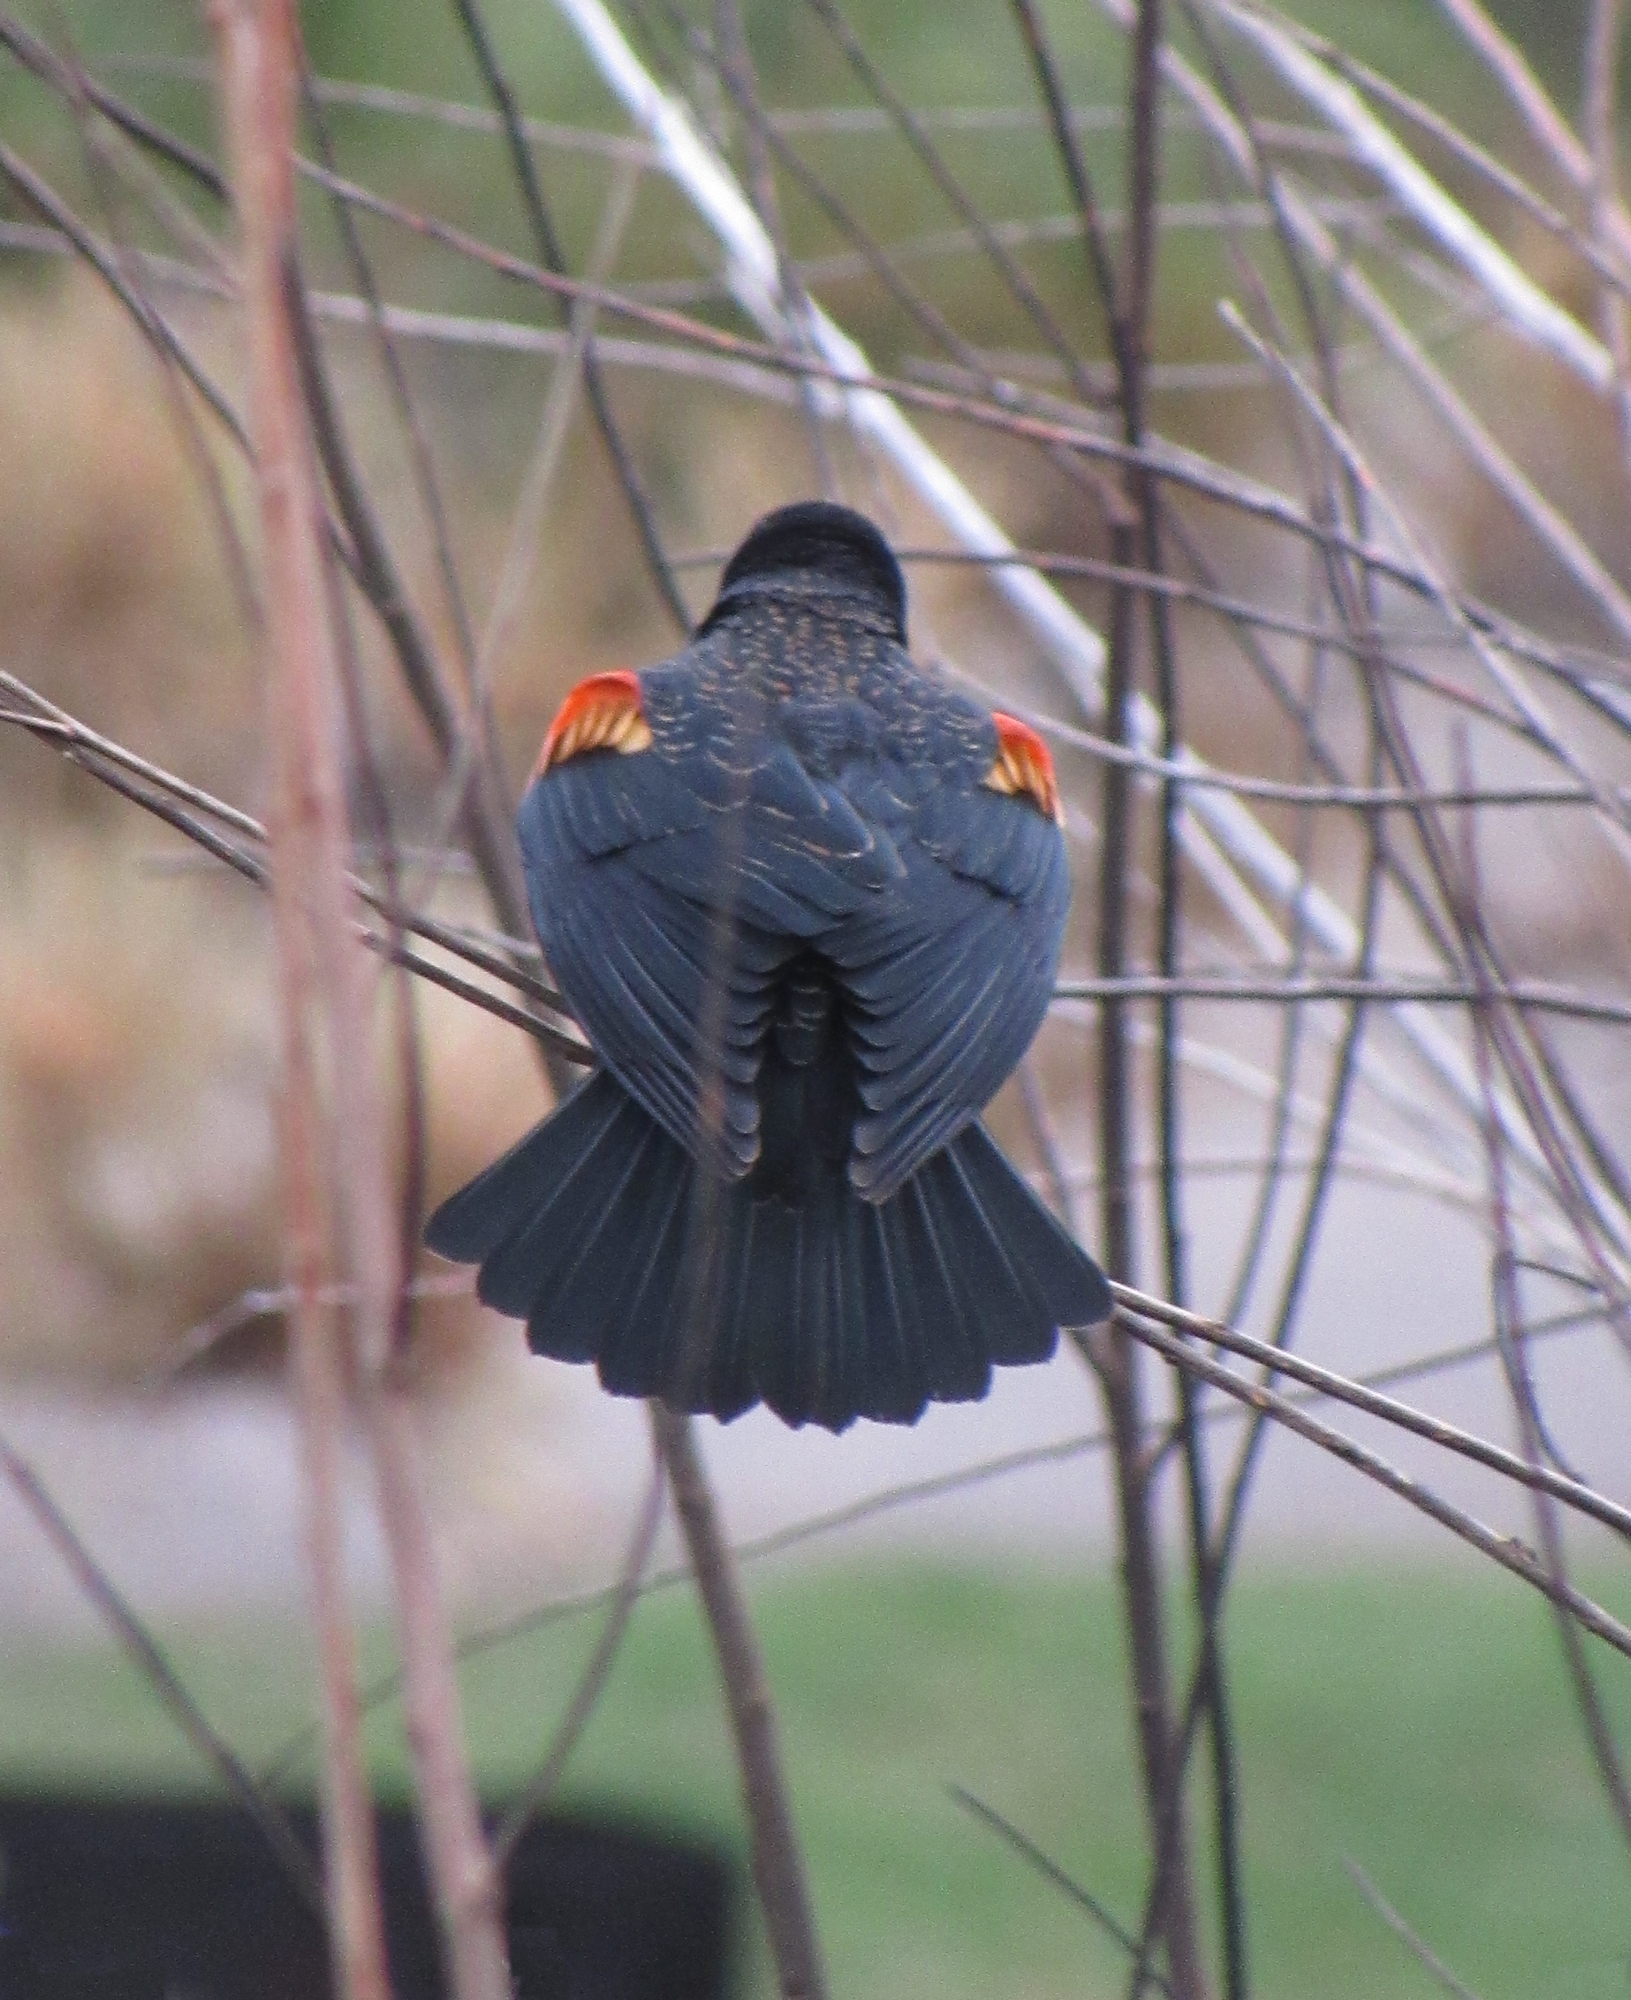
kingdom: Animalia
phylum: Chordata
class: Aves
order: Passeriformes
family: Icteridae
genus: Agelaius
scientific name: Agelaius phoeniceus
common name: Red-winged blackbird
